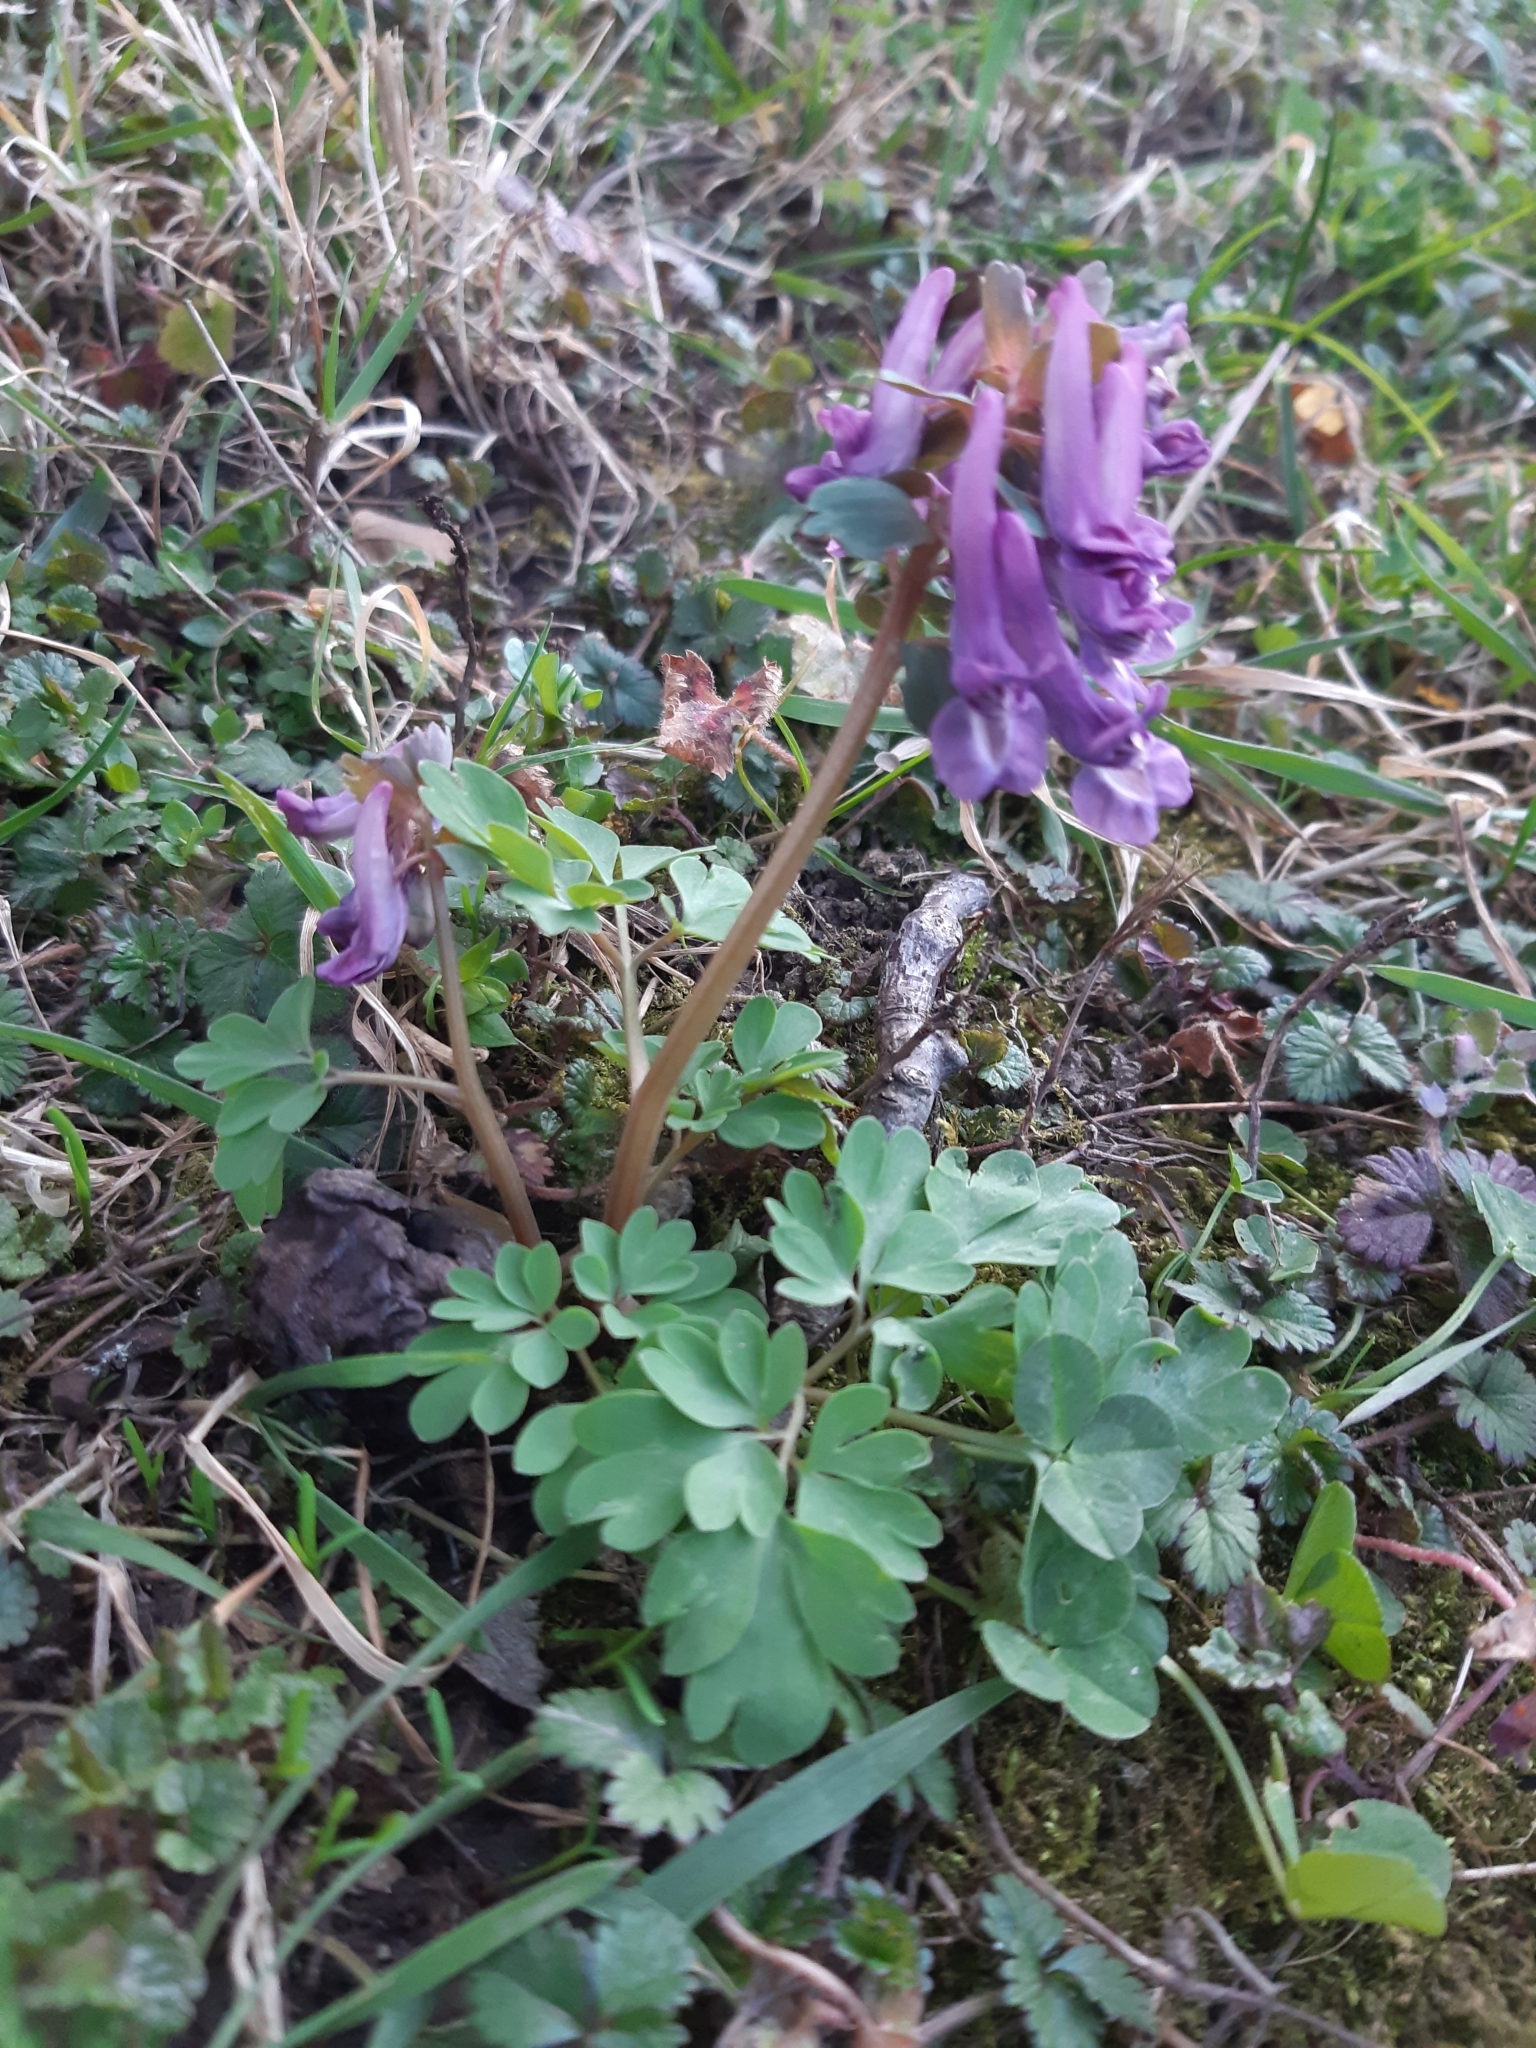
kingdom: Plantae
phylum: Tracheophyta
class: Magnoliopsida
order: Ranunculales
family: Papaveraceae
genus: Corydalis
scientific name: Corydalis solida
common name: Bird-in-a-bush
